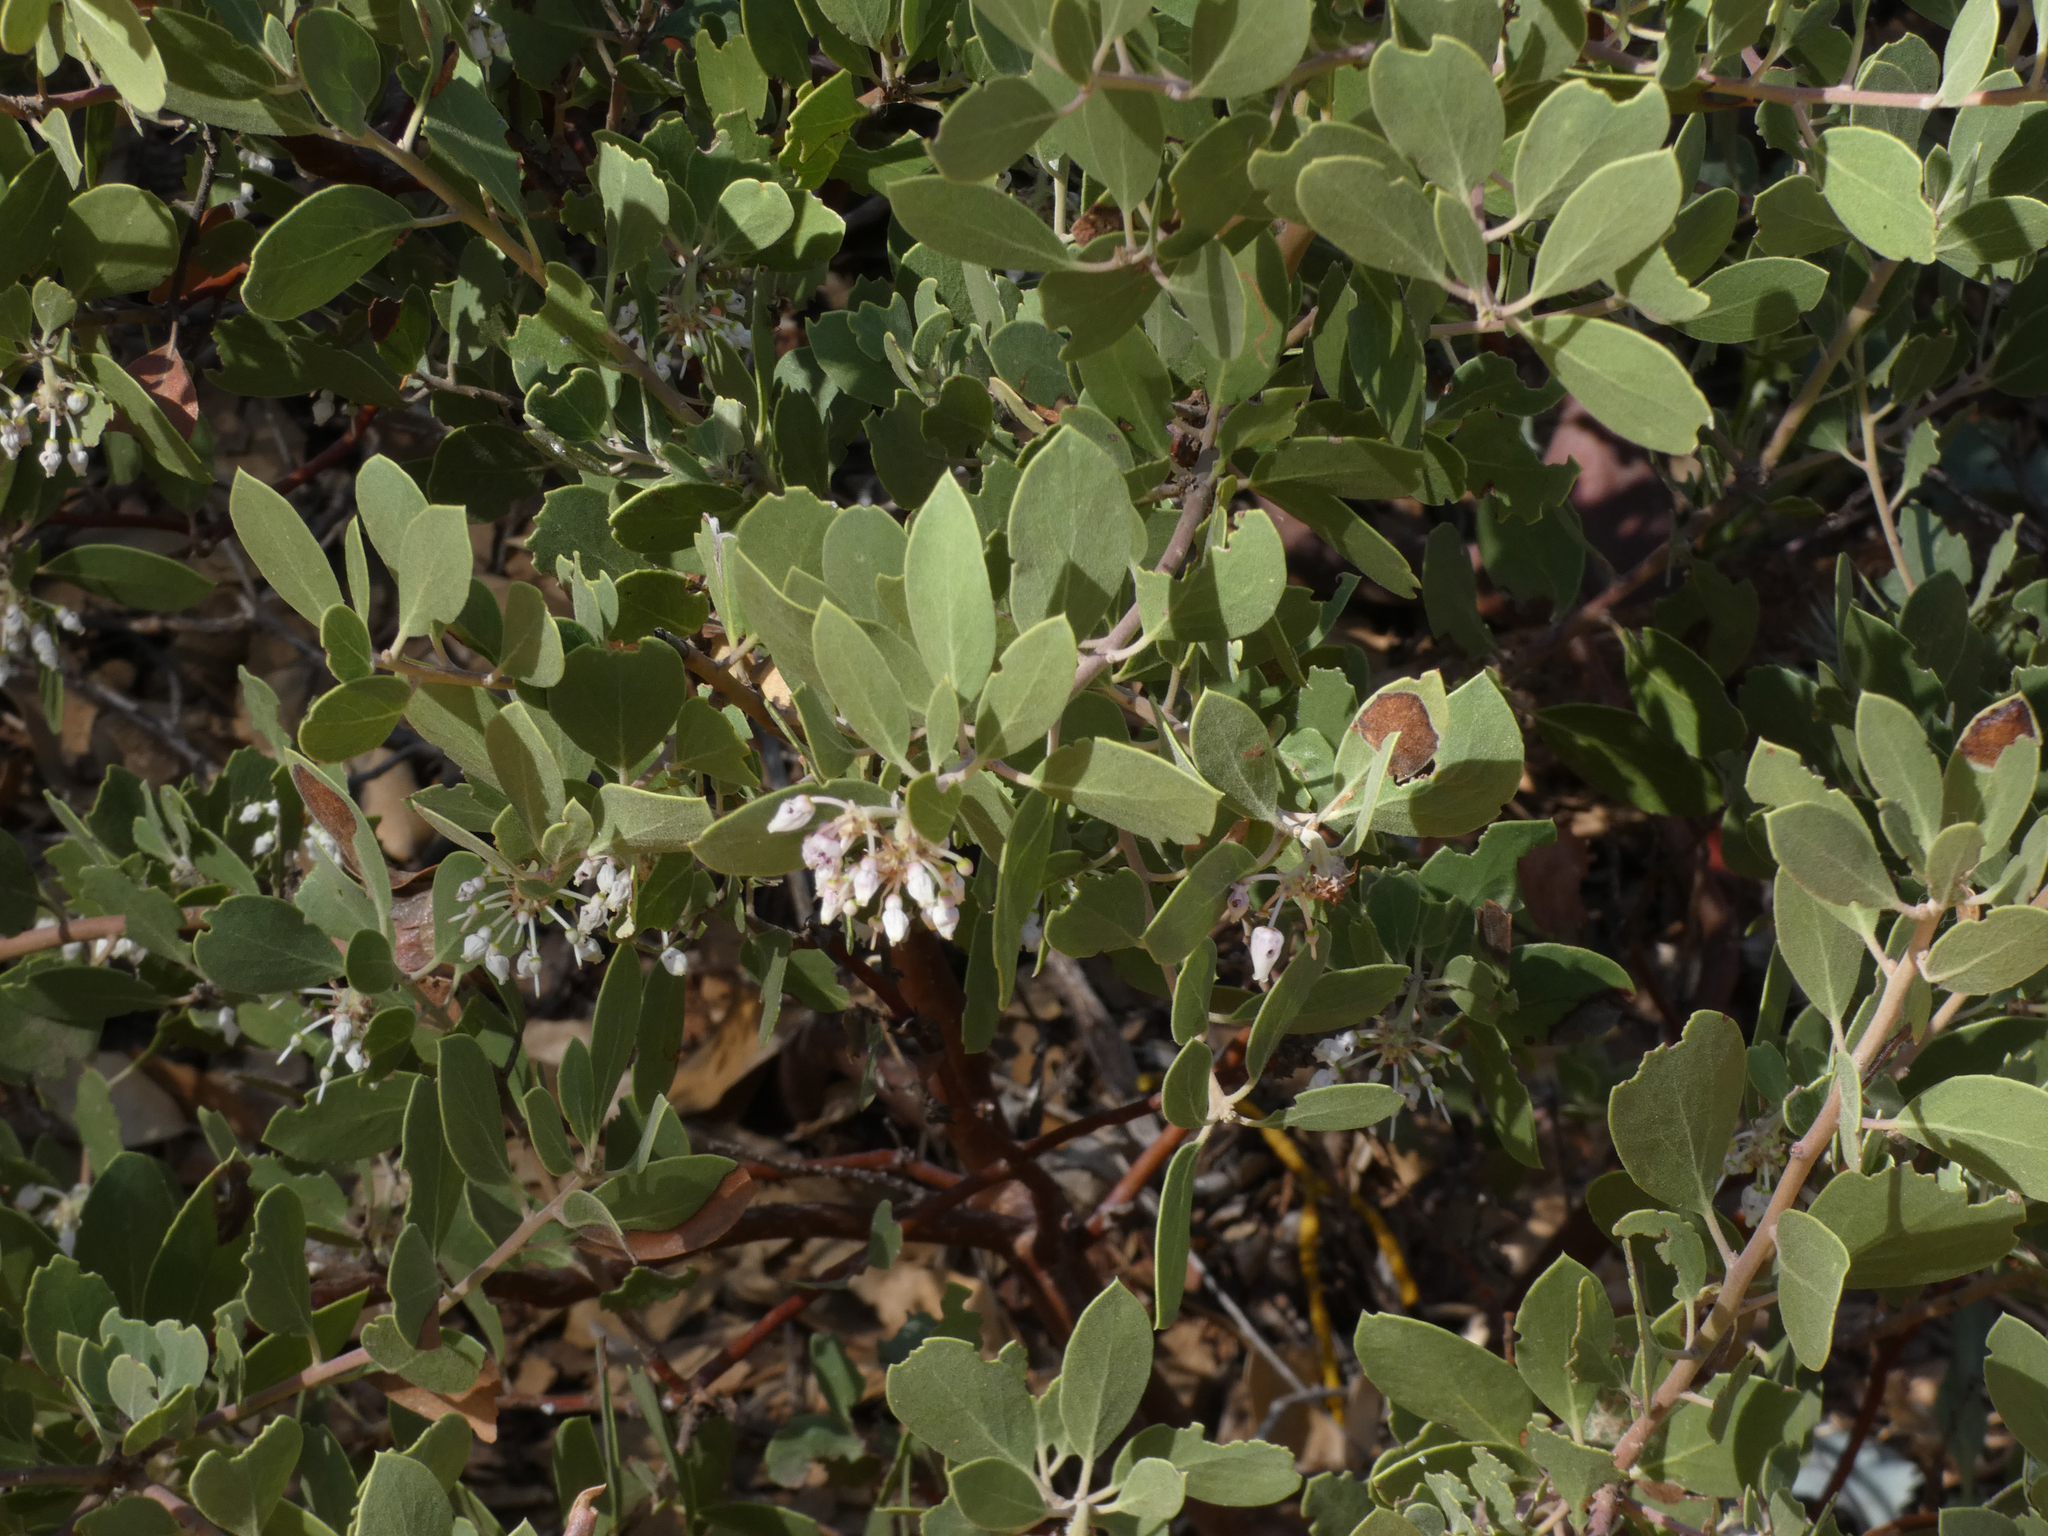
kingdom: Plantae
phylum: Tracheophyta
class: Magnoliopsida
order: Ericales
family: Ericaceae
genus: Arctostaphylos
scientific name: Arctostaphylos pungens
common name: Mexican manzanita
